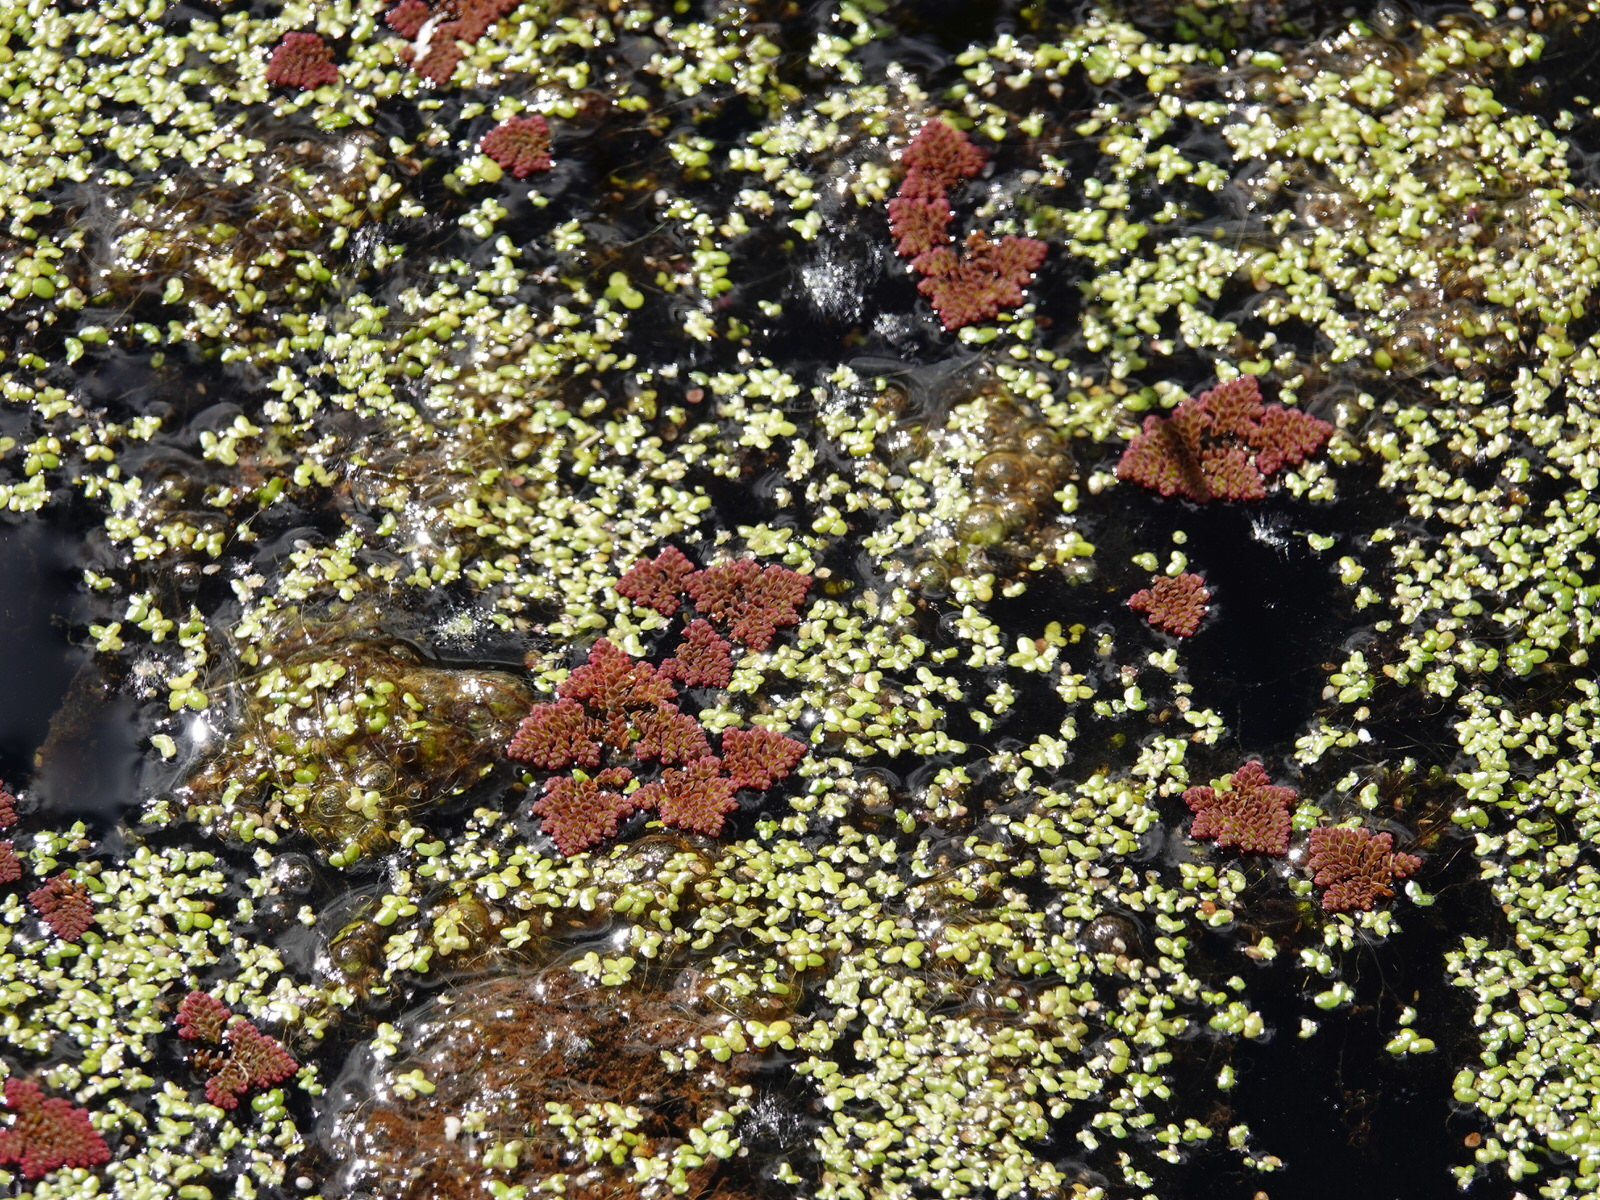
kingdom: Plantae
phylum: Tracheophyta
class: Polypodiopsida
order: Salviniales
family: Salviniaceae
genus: Azolla
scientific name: Azolla pinnata
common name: Ferny azolla
